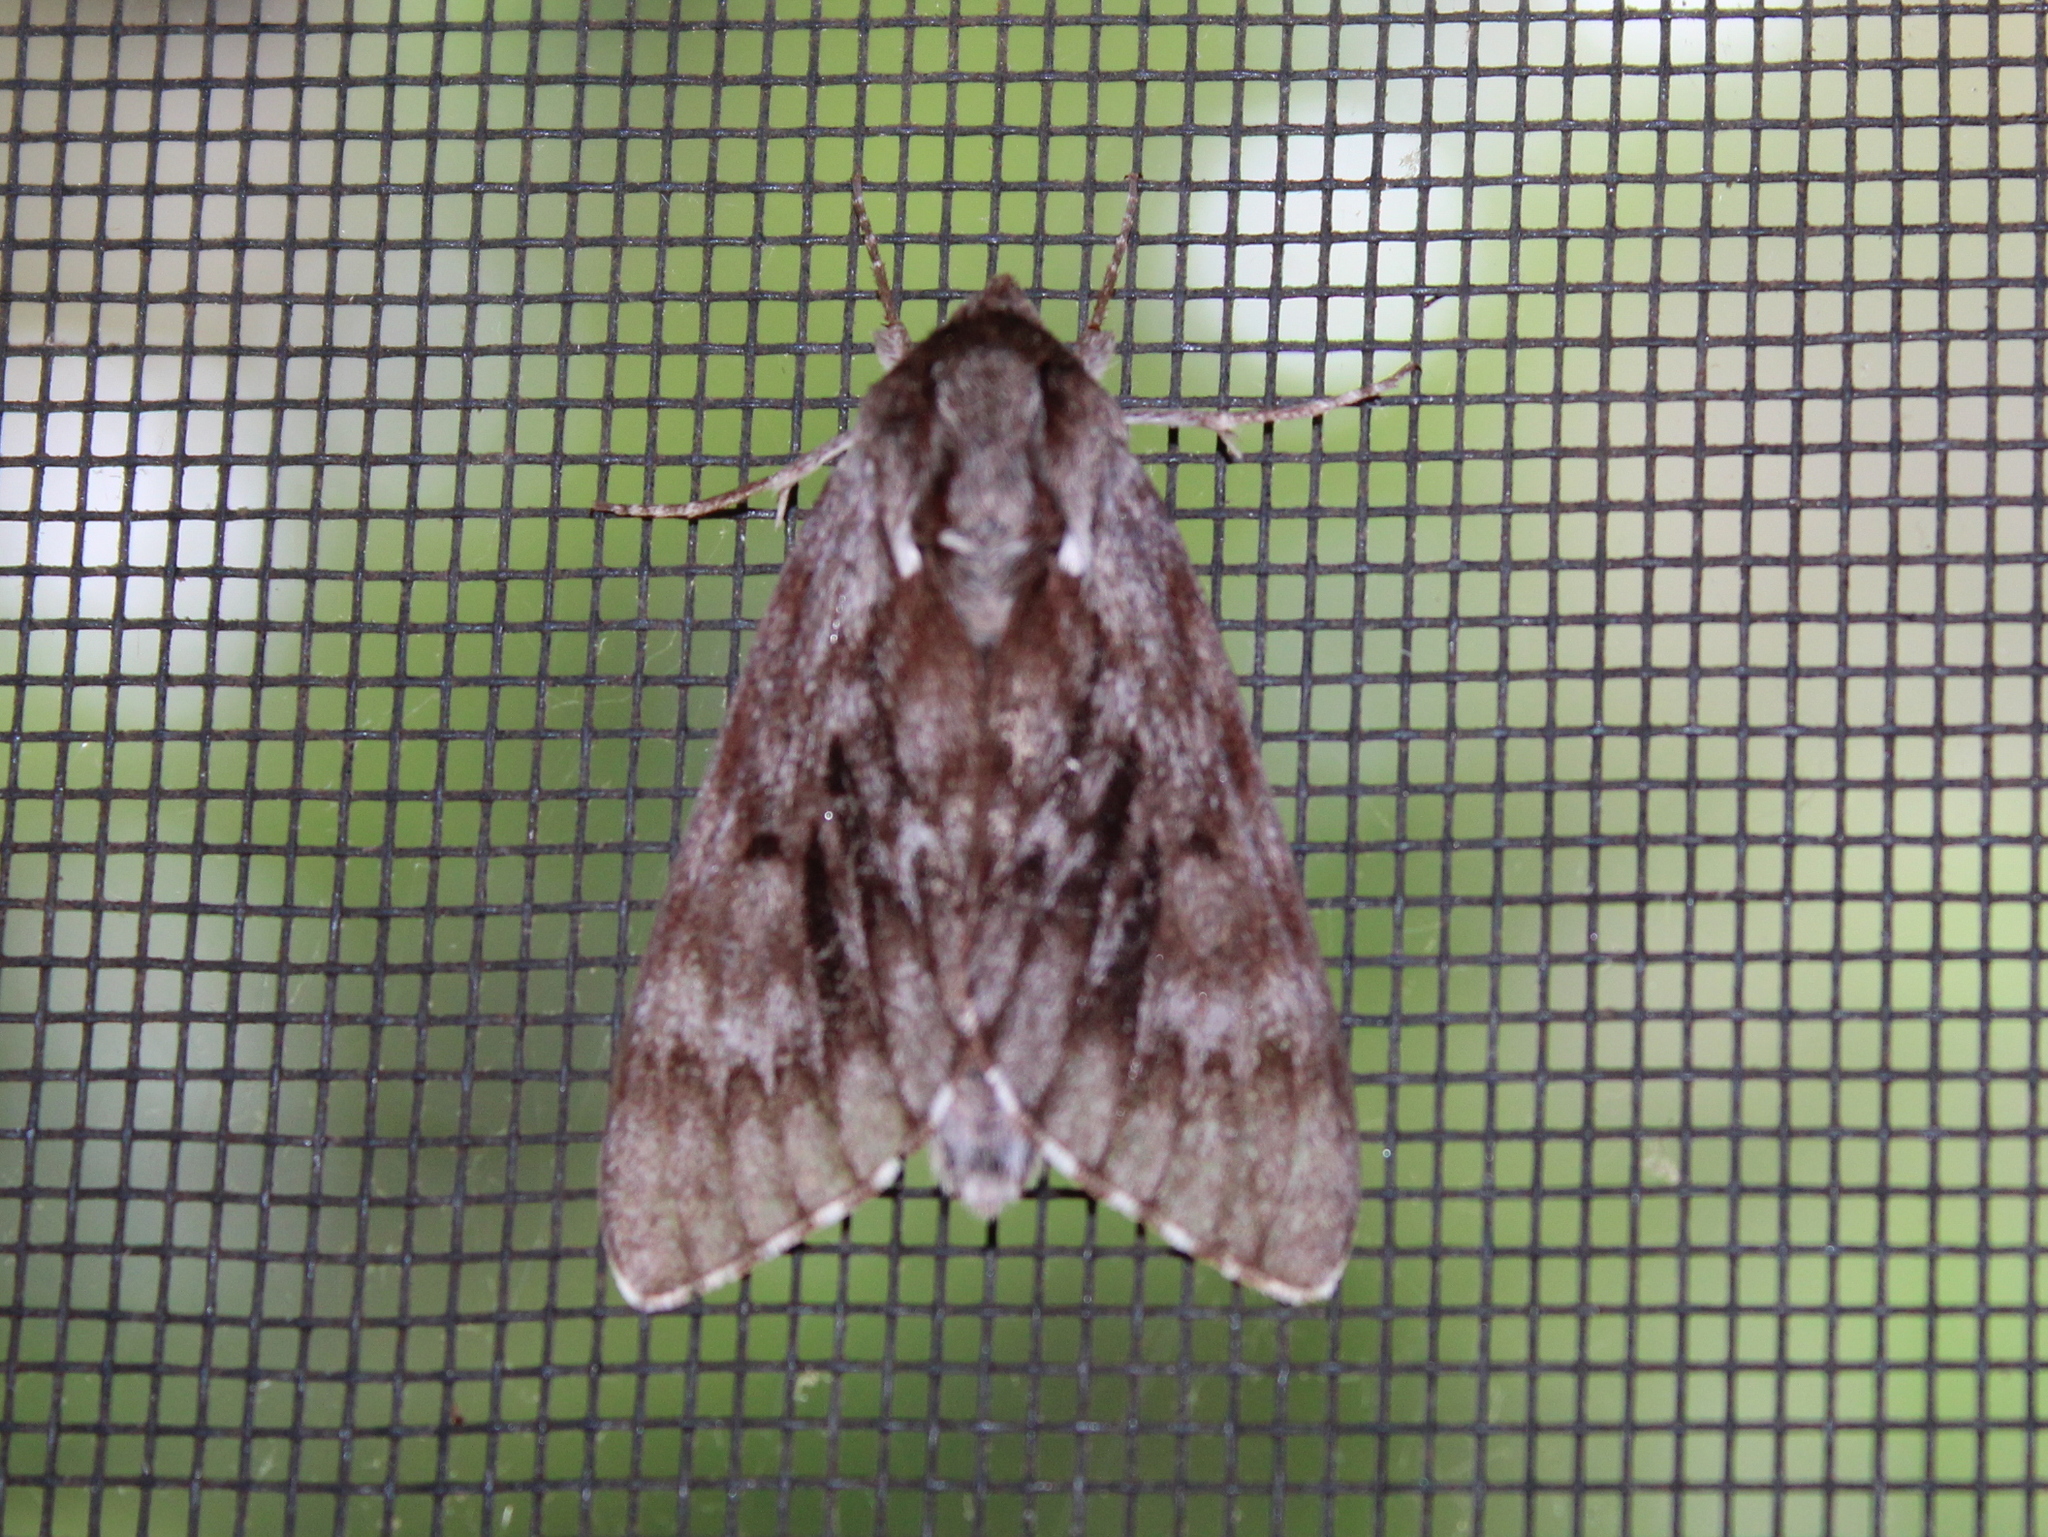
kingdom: Animalia
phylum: Arthropoda
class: Insecta
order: Lepidoptera
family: Sphingidae
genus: Lapara
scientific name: Lapara bombycoides
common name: Northern pine sphinx
